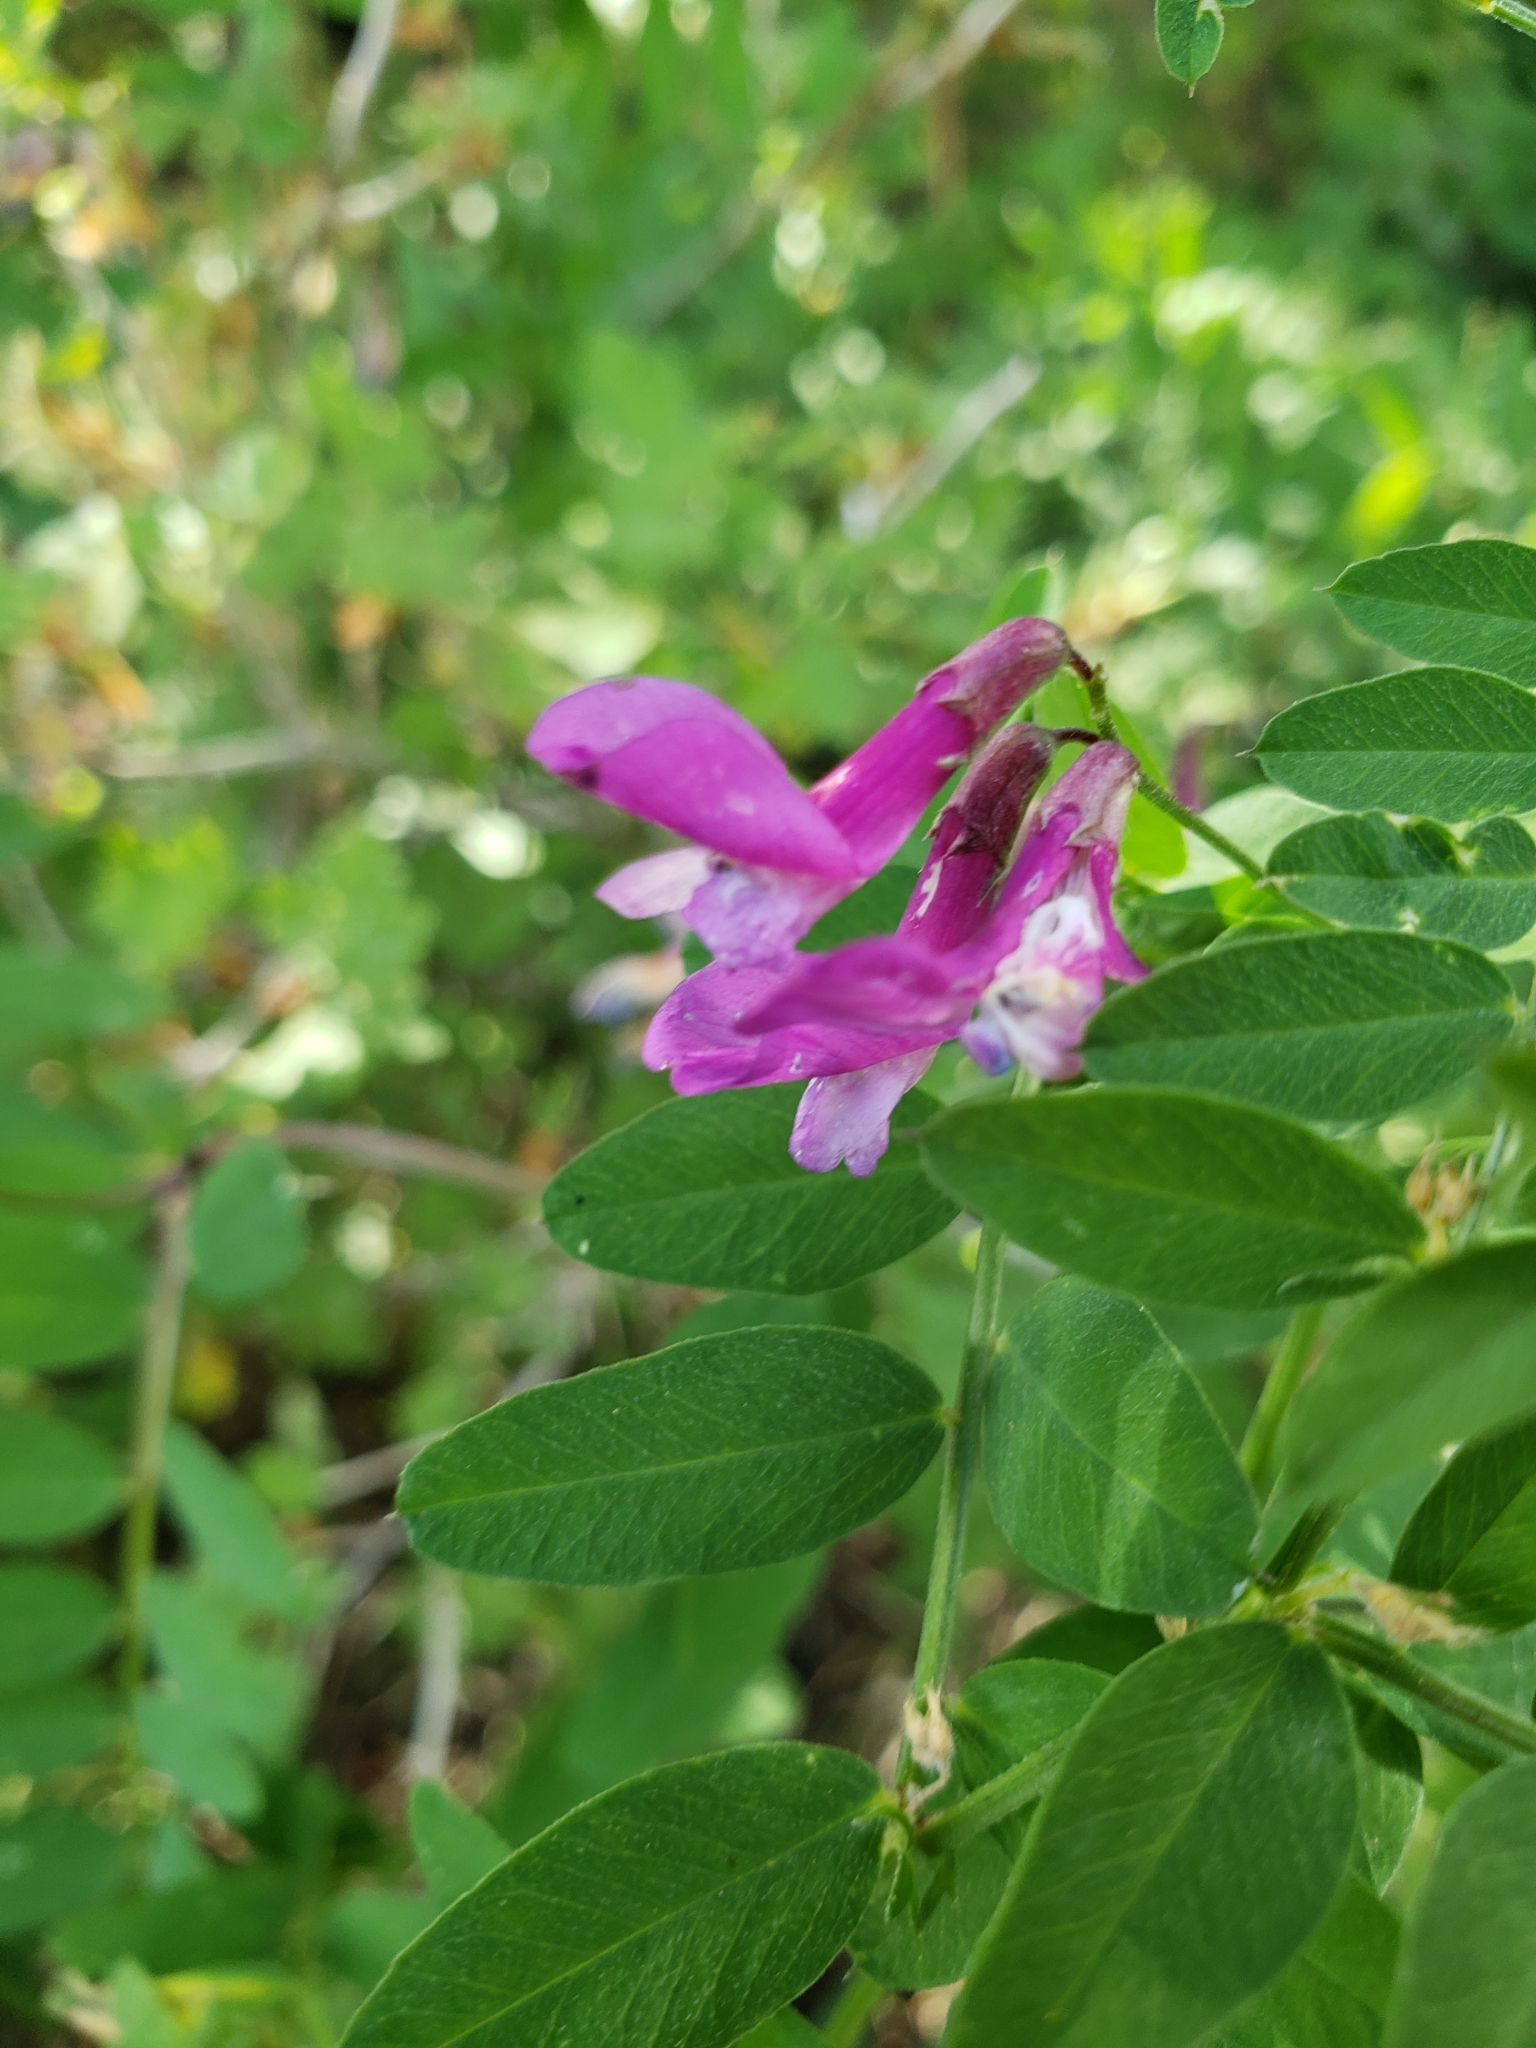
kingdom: Plantae
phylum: Tracheophyta
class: Magnoliopsida
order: Fabales
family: Fabaceae
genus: Vicia
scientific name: Vicia americana
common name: American vetch
